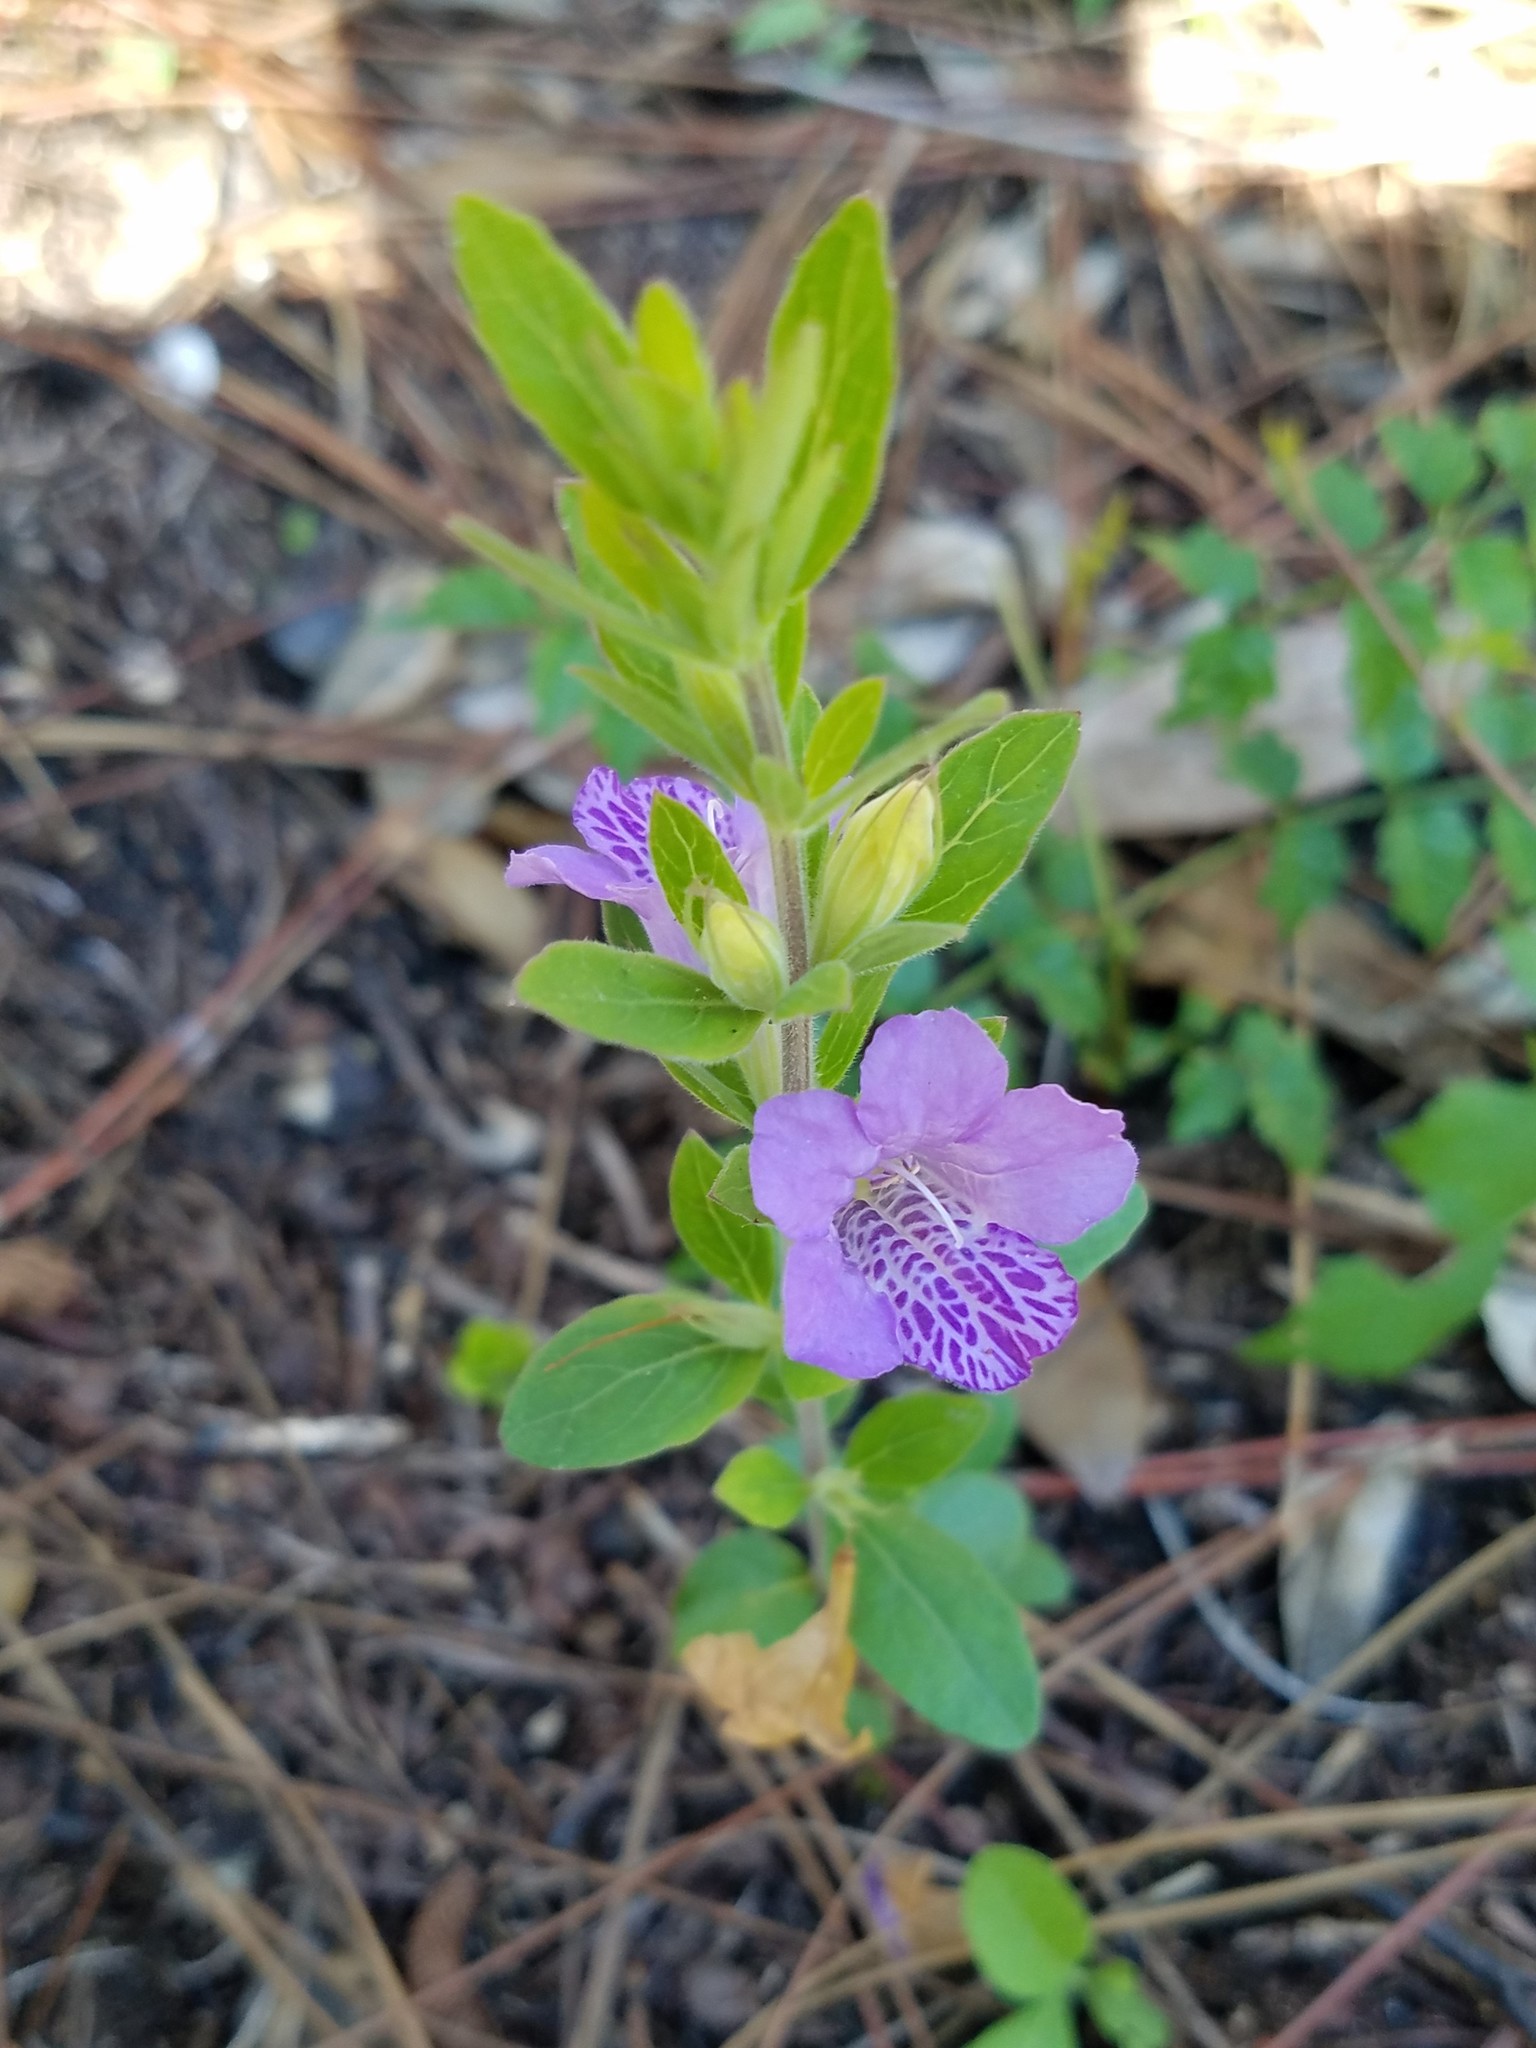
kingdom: Plantae
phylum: Tracheophyta
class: Magnoliopsida
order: Lamiales
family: Acanthaceae
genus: Dyschoriste
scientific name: Dyschoriste oblongifolia
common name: Blue twinflower
